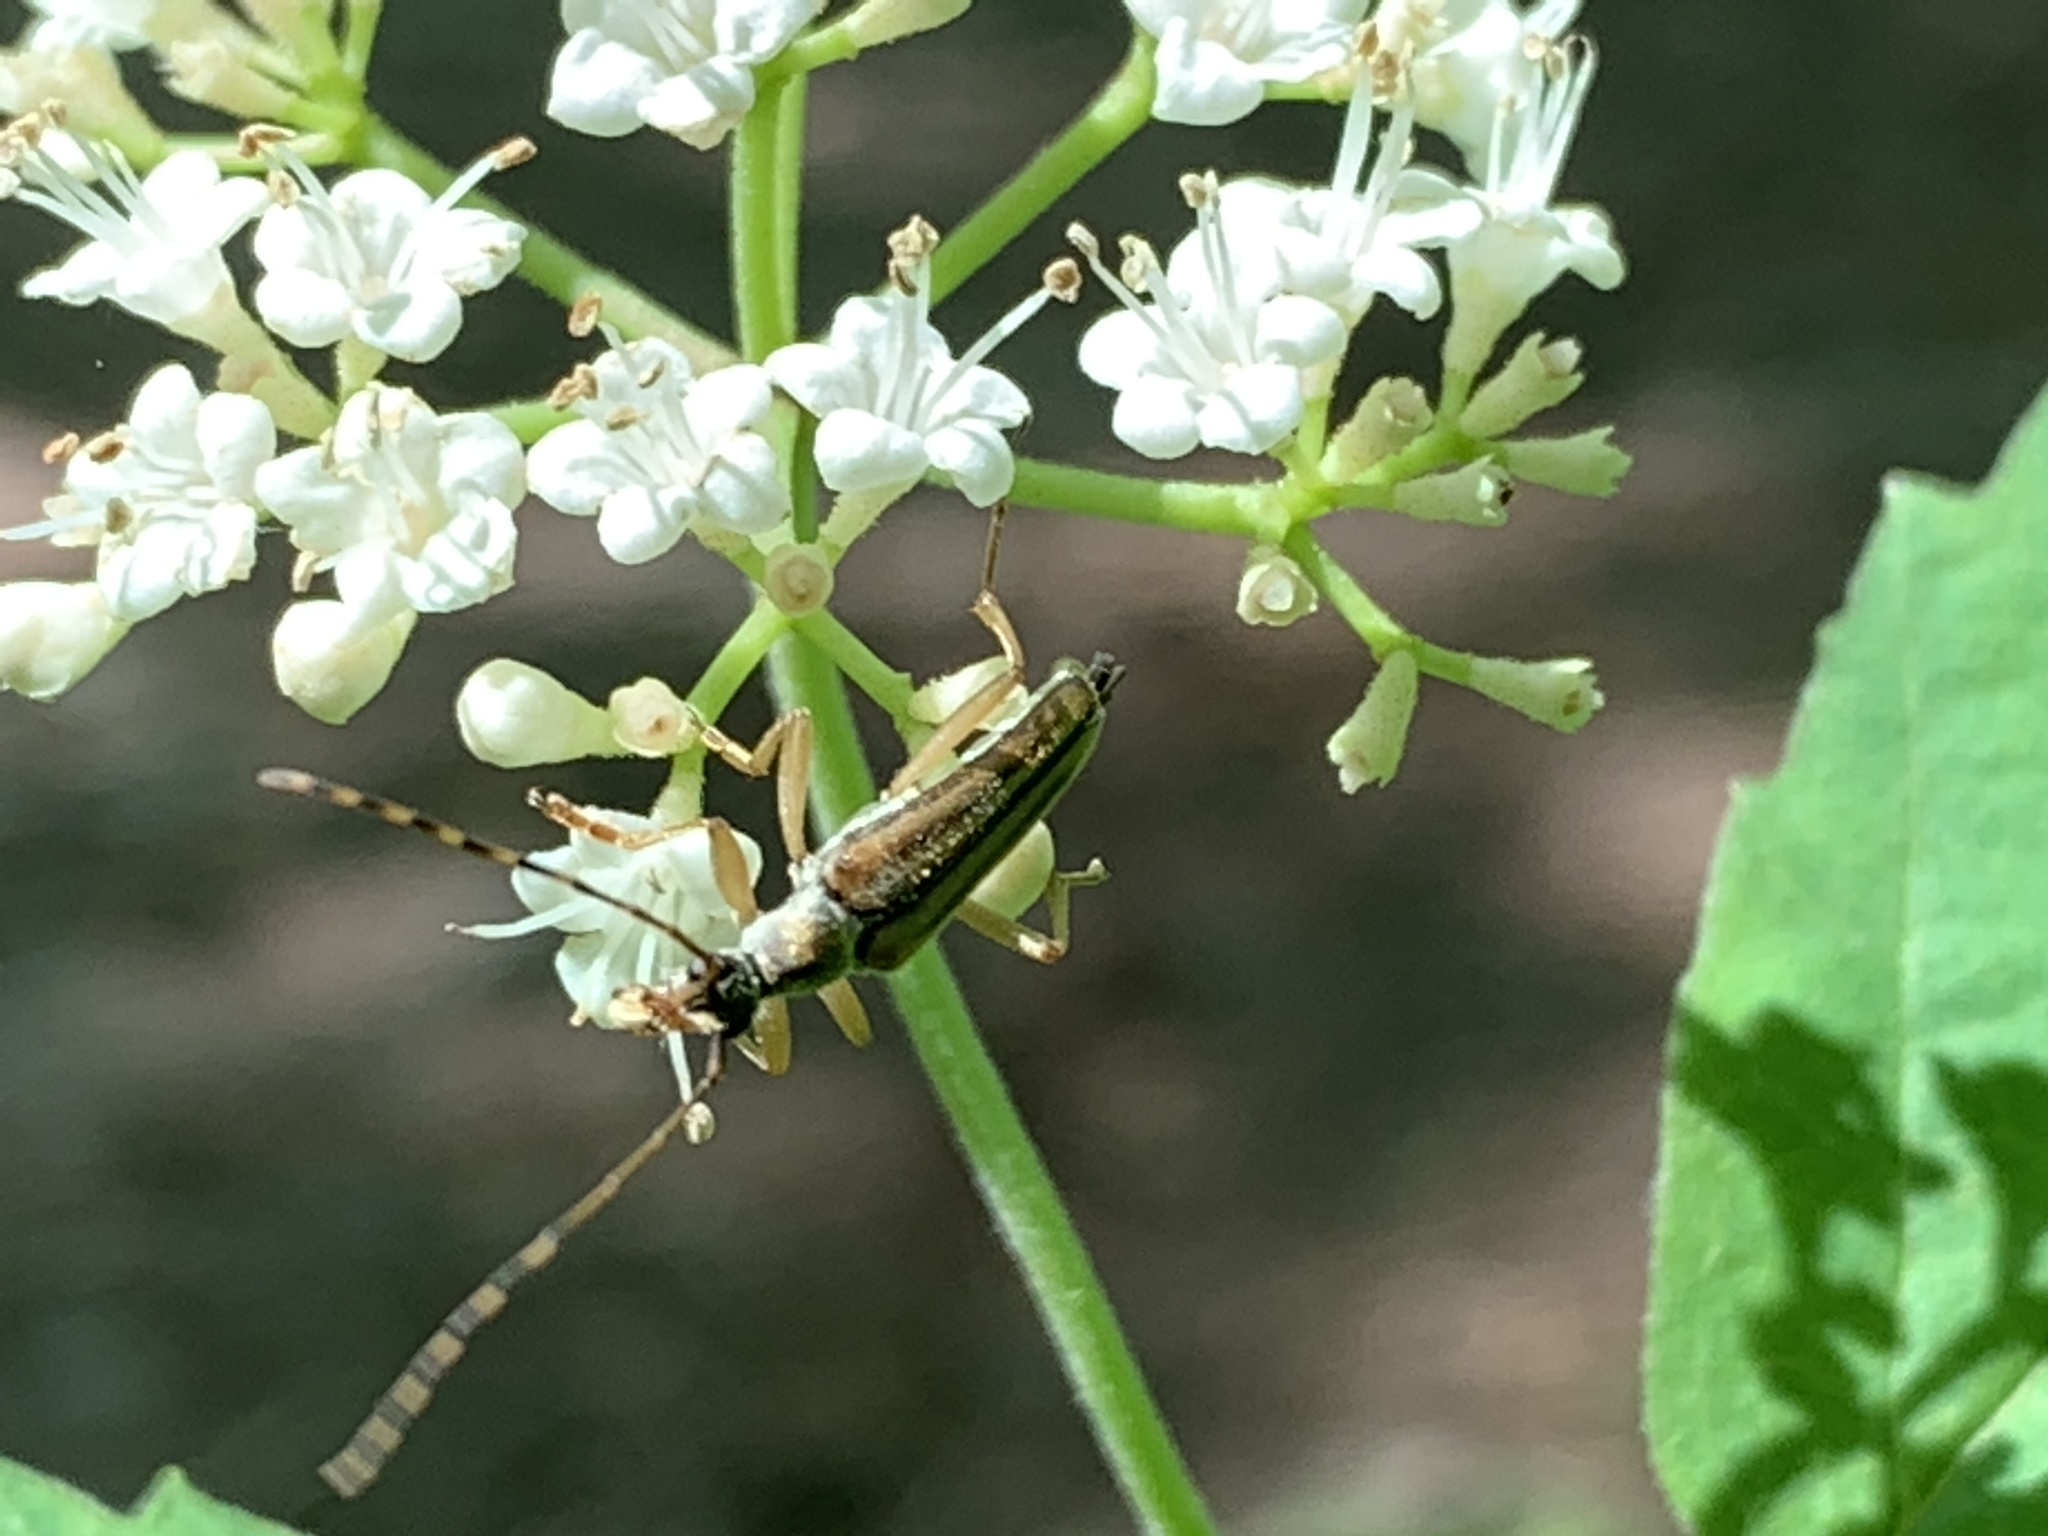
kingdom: Animalia
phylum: Arthropoda
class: Insecta
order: Coleoptera
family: Cerambycidae
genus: Analeptura
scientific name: Analeptura lineola
